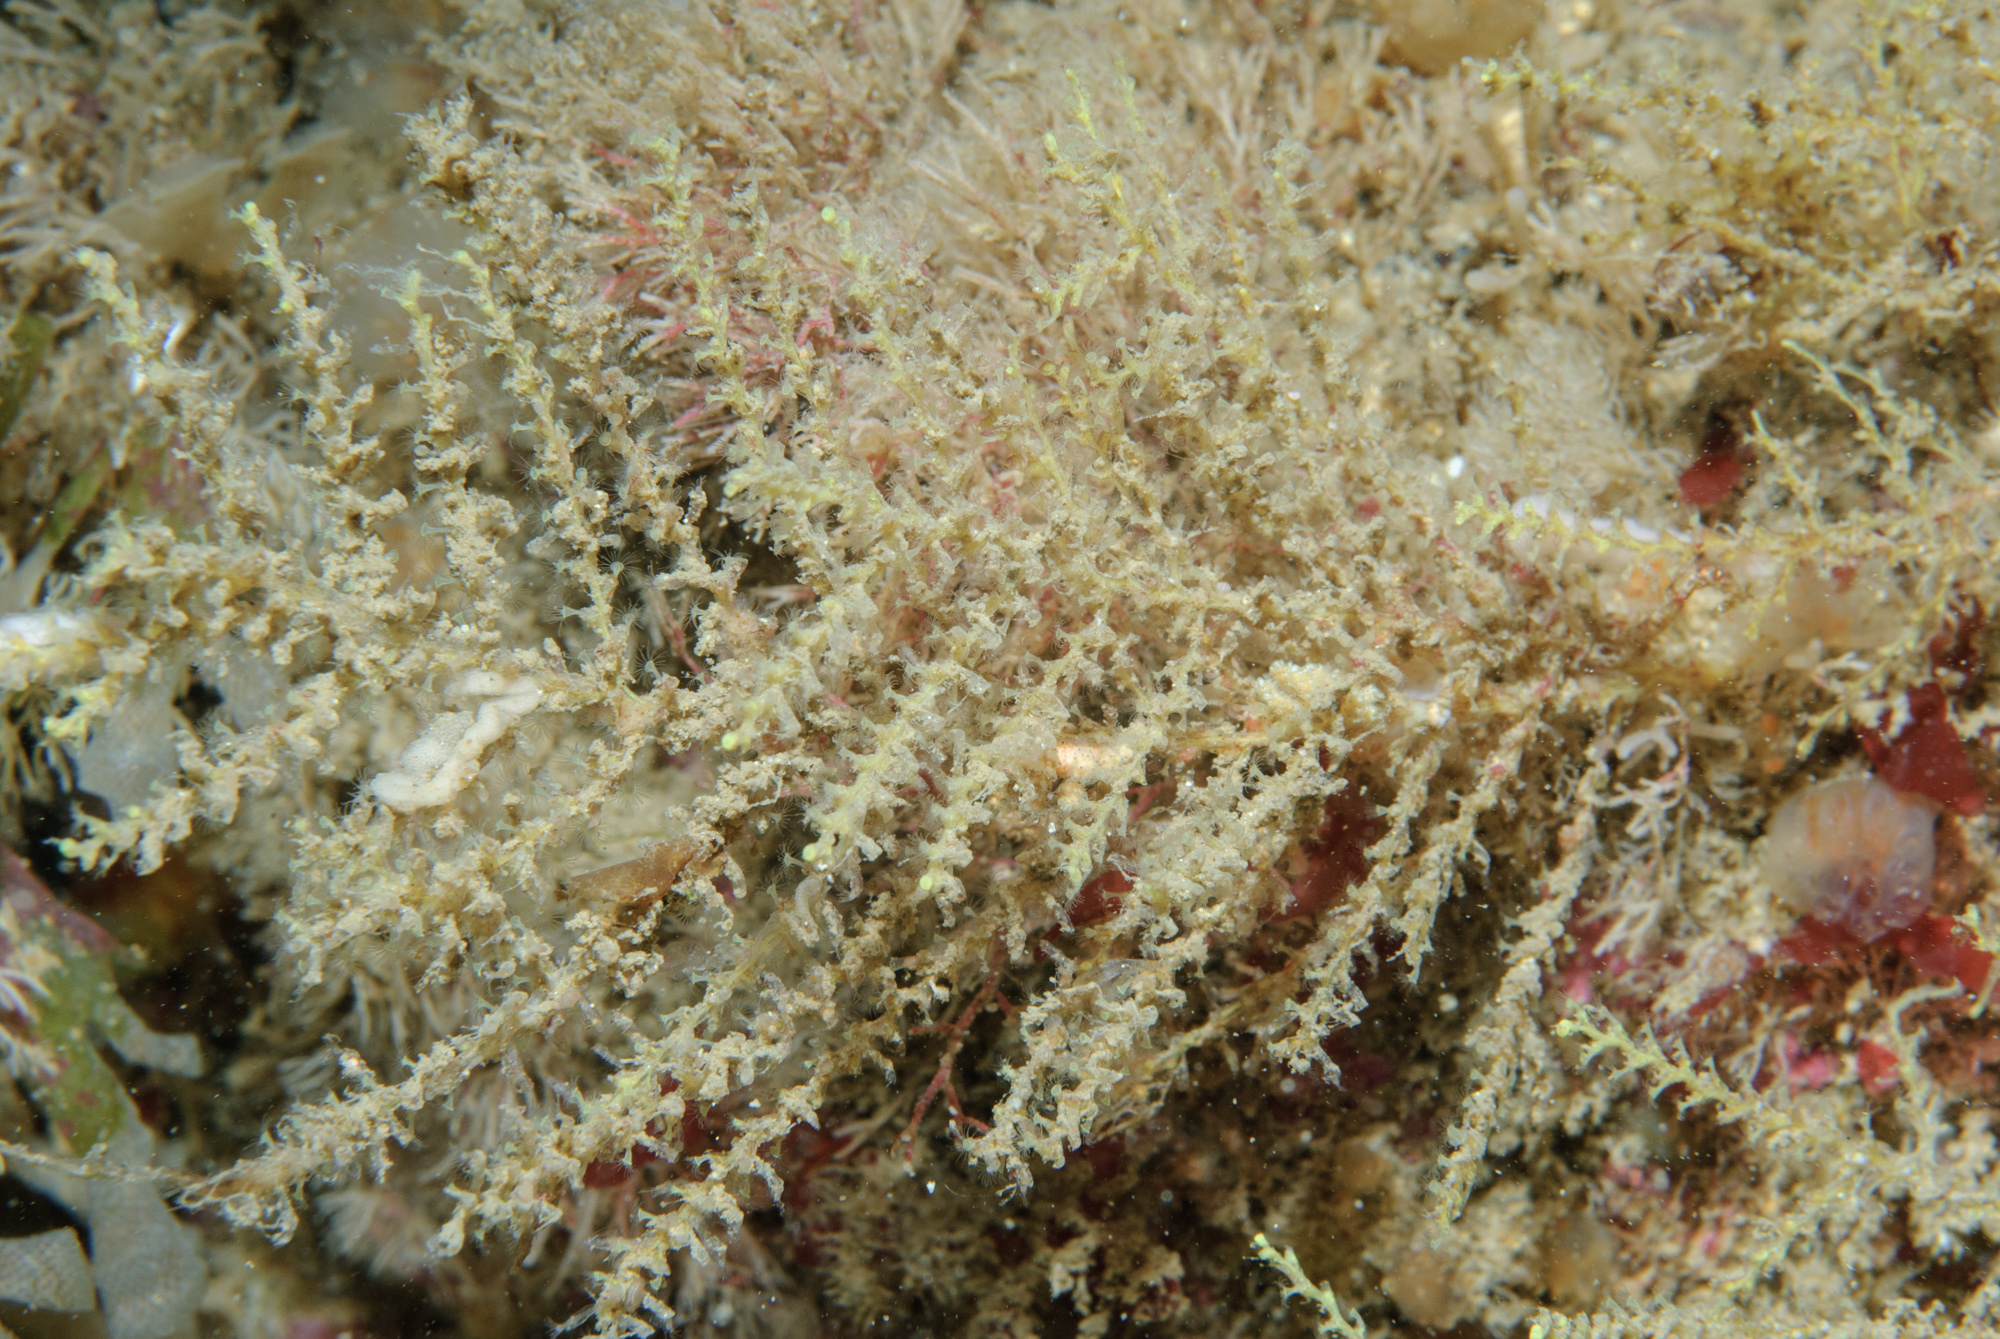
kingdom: Animalia
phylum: Cnidaria
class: Hydrozoa
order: Leptothecata
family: Sertularellidae
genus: Sertularella
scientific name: Sertularella gayi
